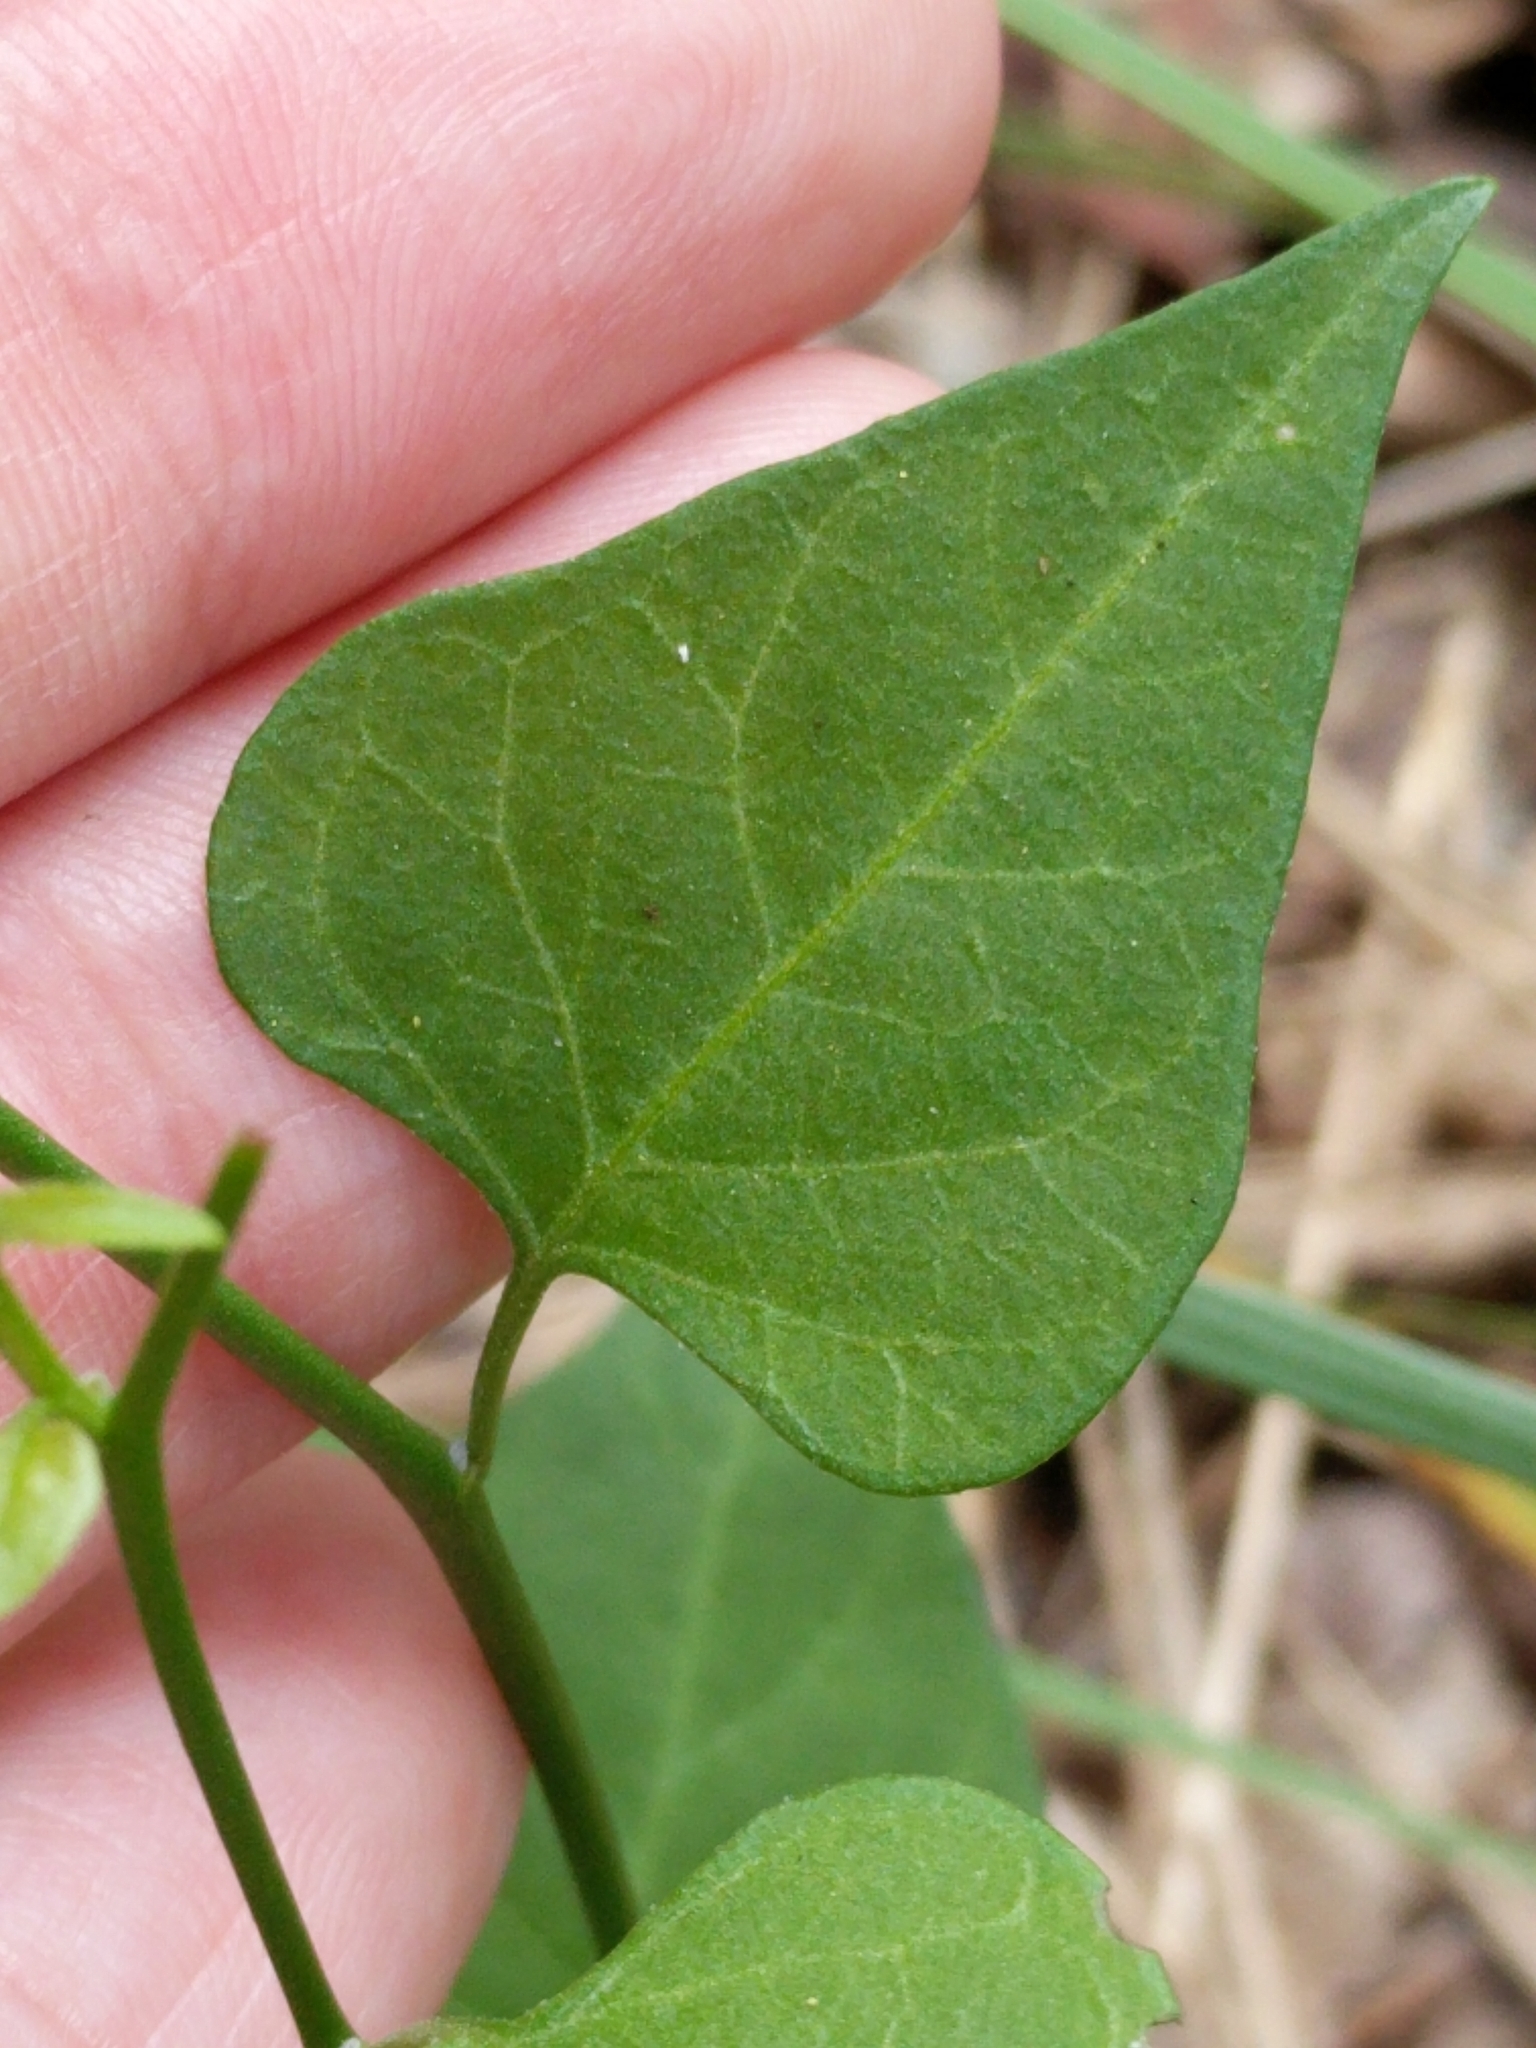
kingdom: Plantae
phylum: Tracheophyta
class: Magnoliopsida
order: Solanales
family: Solanaceae
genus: Solanum
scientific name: Solanum triquetrum
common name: Texas nightshade
